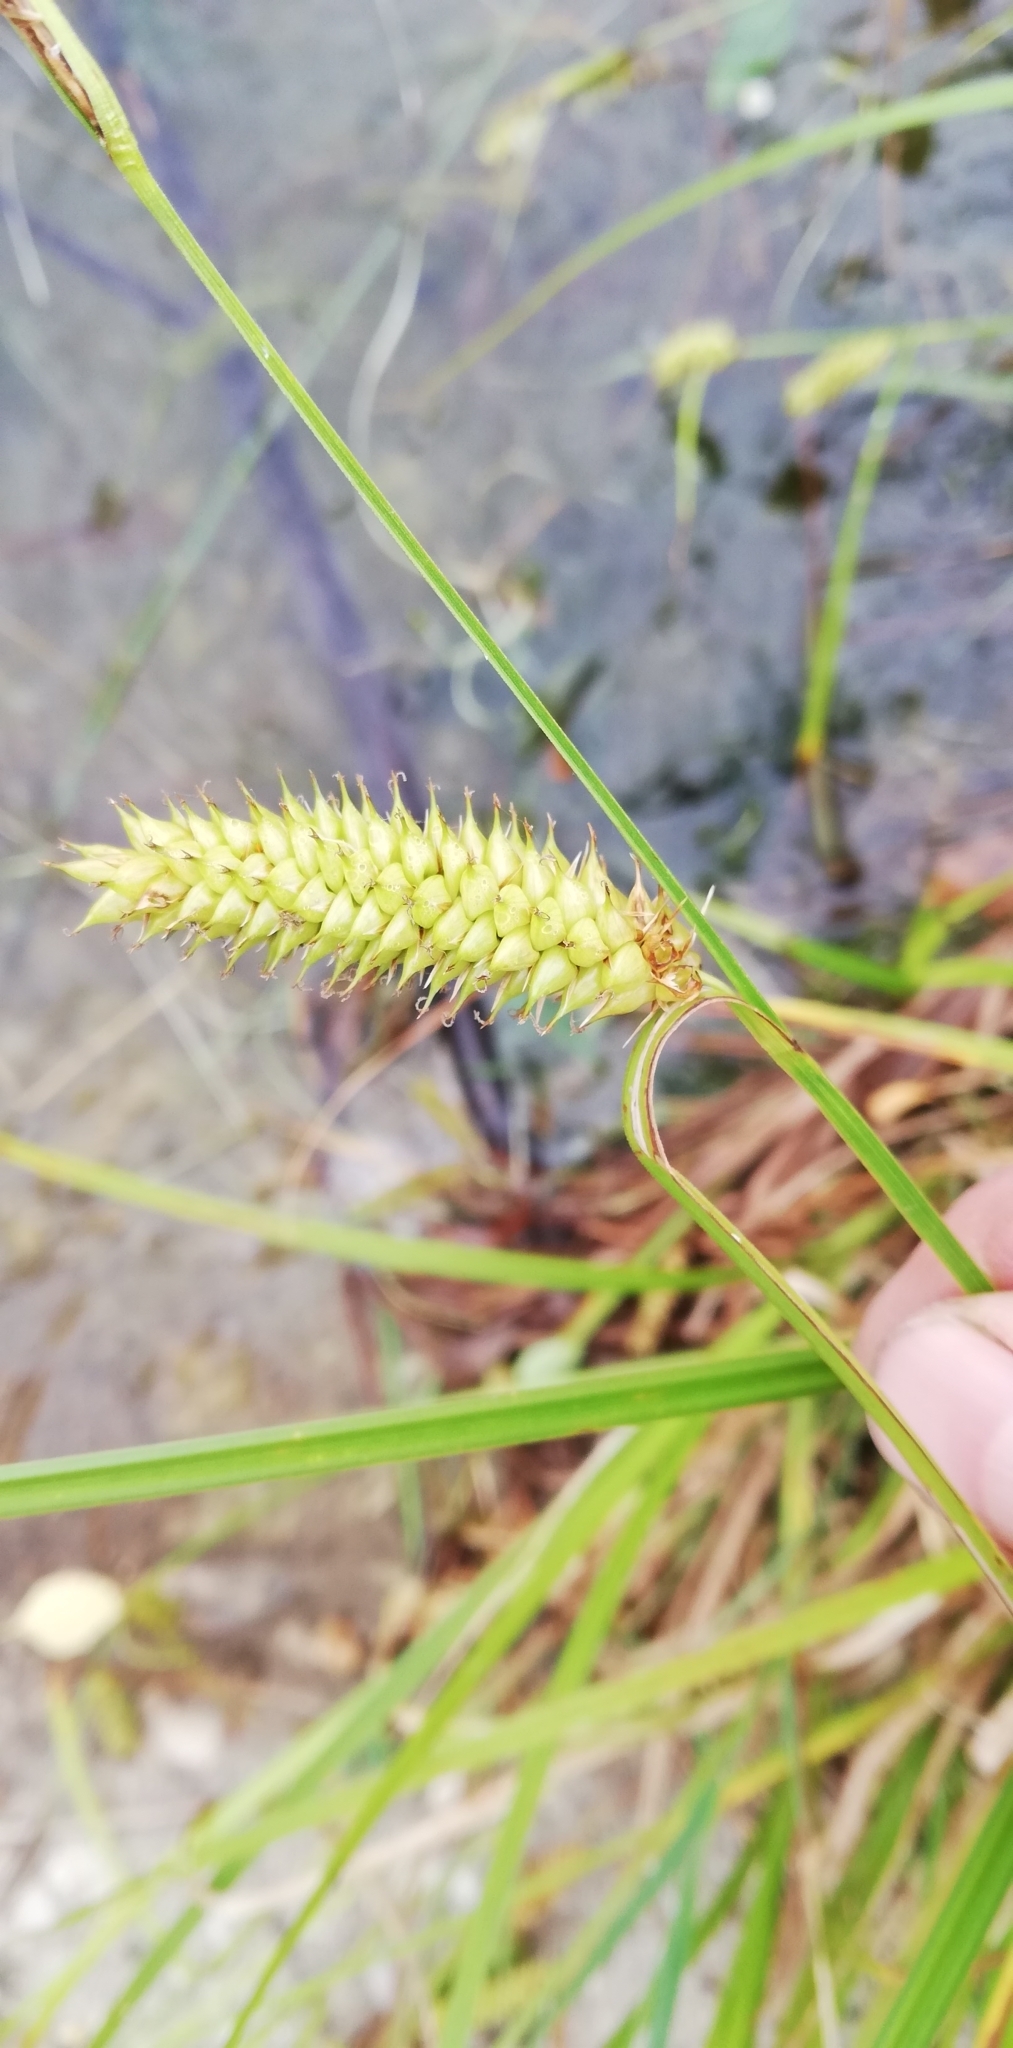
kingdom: Plantae
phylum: Tracheophyta
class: Liliopsida
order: Poales
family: Cyperaceae
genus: Carex
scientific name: Carex vesicaria
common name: Bladder-sedge
